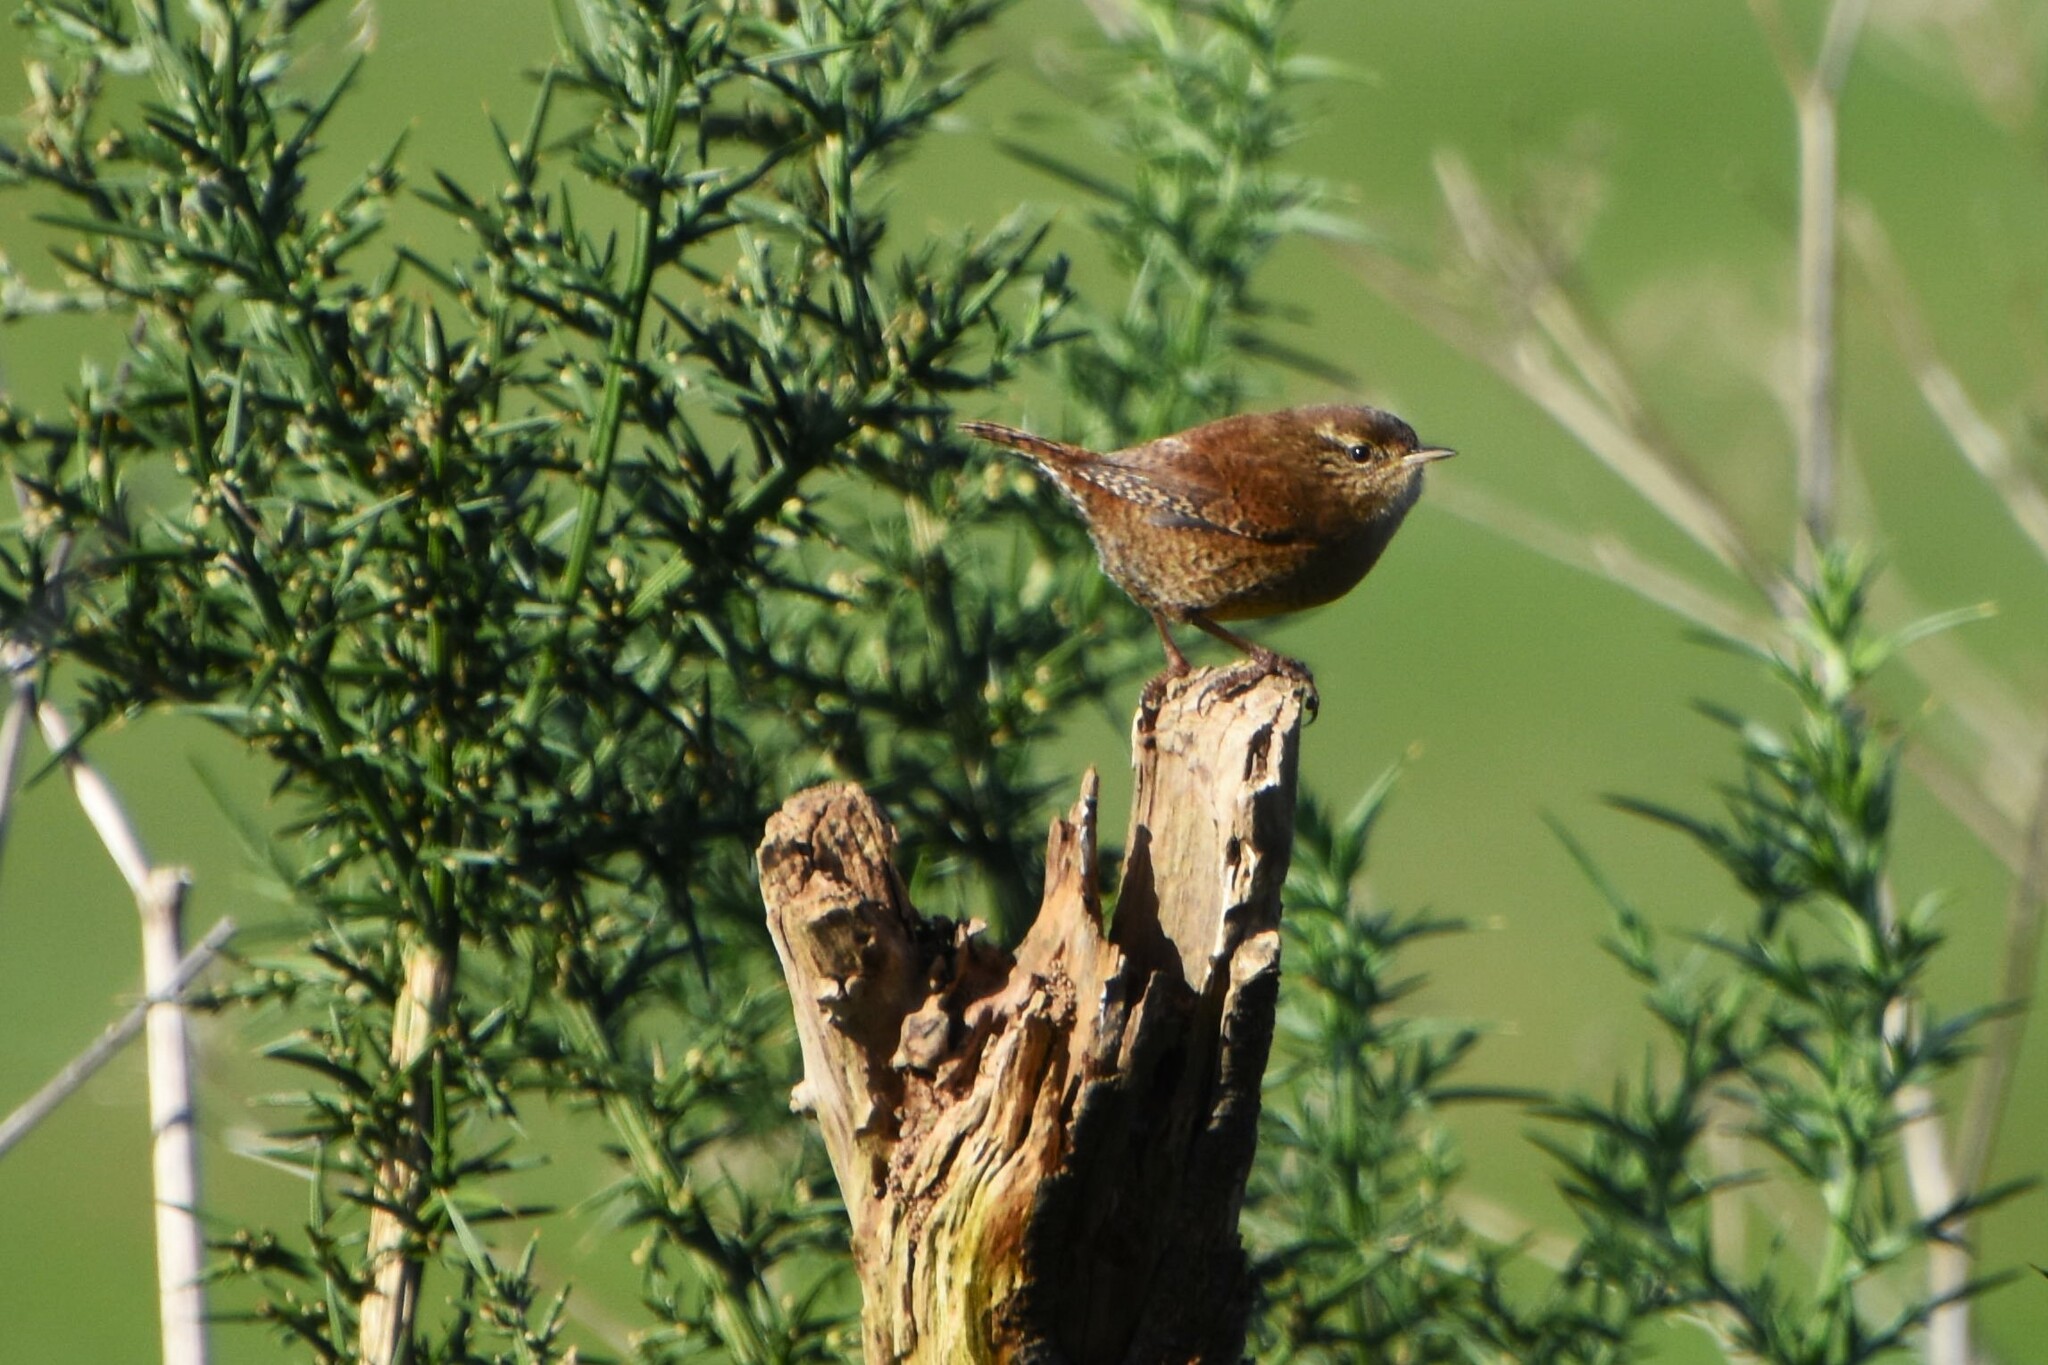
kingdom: Animalia
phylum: Chordata
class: Aves
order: Passeriformes
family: Troglodytidae
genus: Troglodytes
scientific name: Troglodytes troglodytes
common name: Eurasian wren
